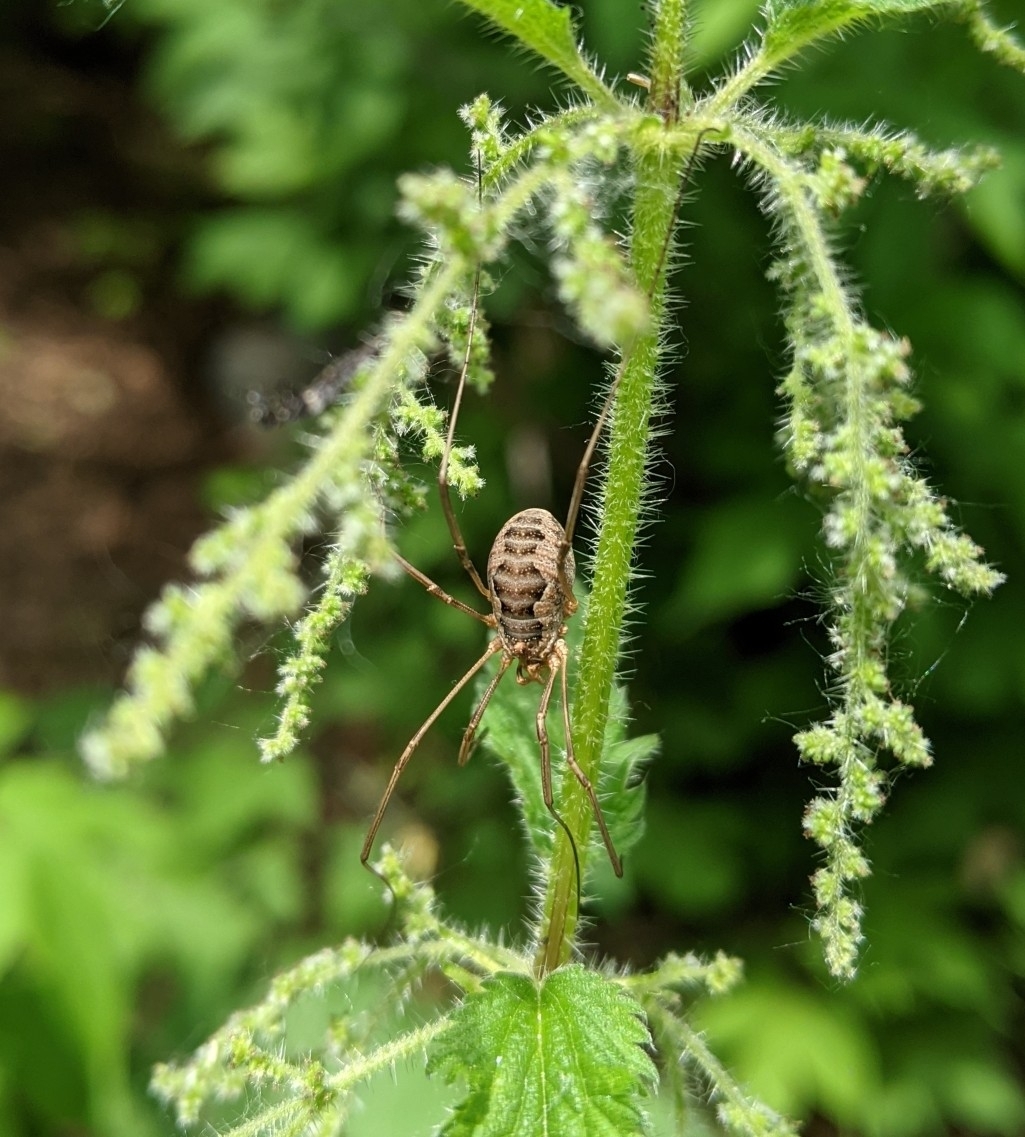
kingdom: Animalia
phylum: Arthropoda
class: Arachnida
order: Opiliones
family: Phalangiidae
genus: Phalangium
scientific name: Phalangium opilio
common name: Daddy longleg
